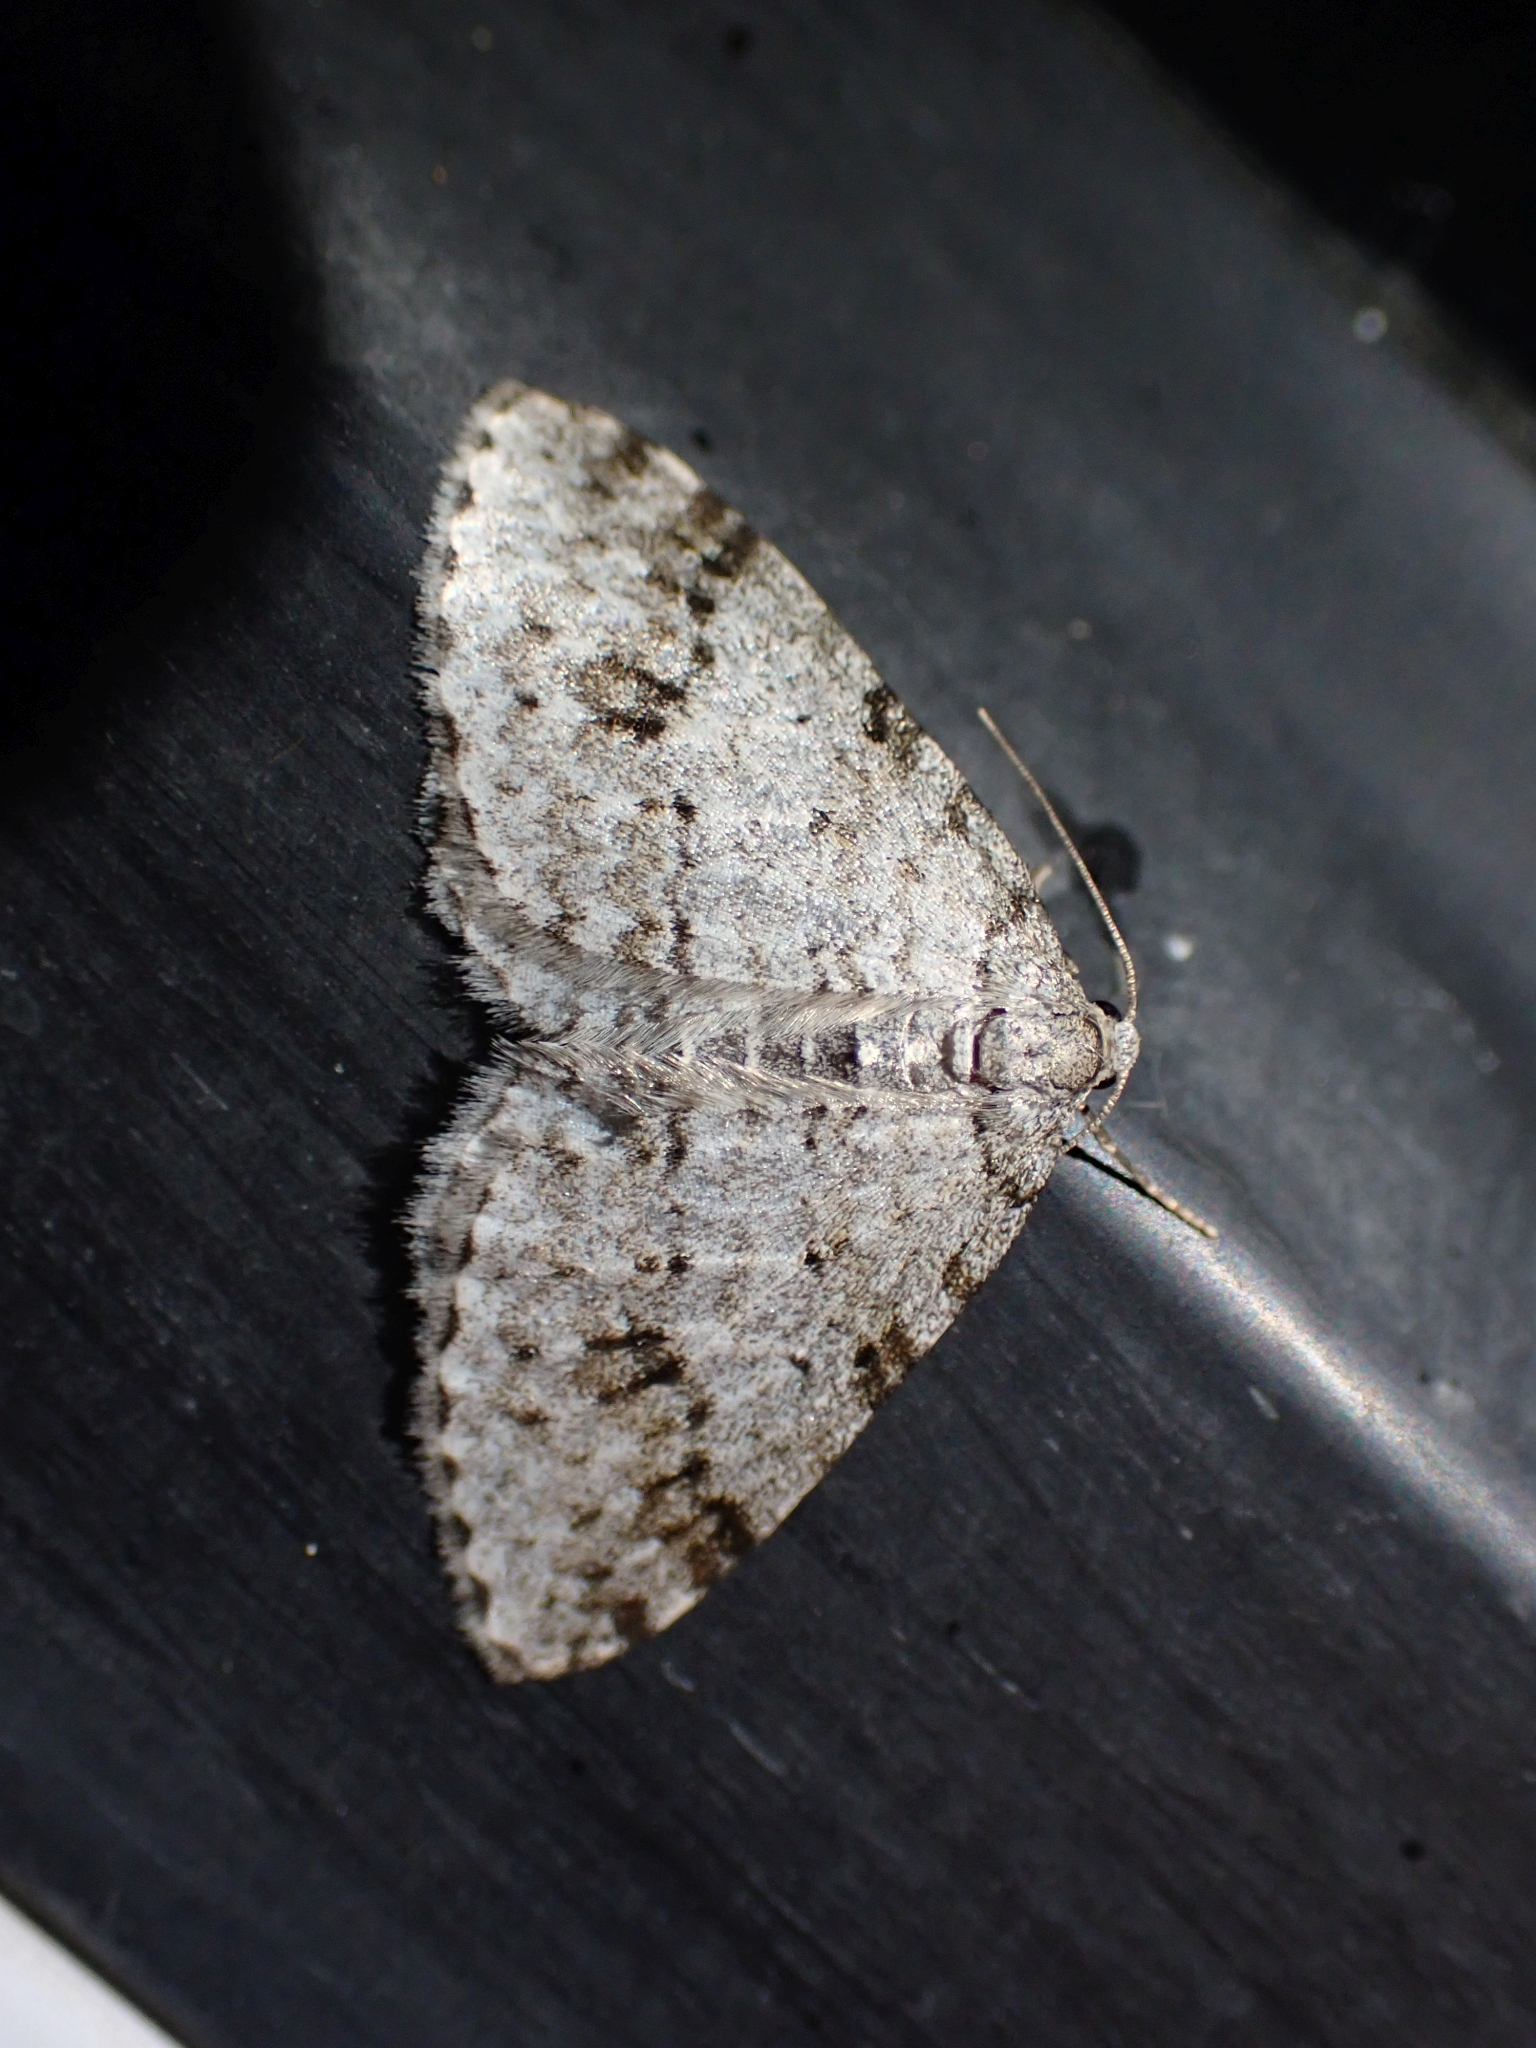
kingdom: Animalia
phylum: Arthropoda
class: Insecta
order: Lepidoptera
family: Geometridae
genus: Venusia
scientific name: Venusia cambrica
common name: Welsh wave
